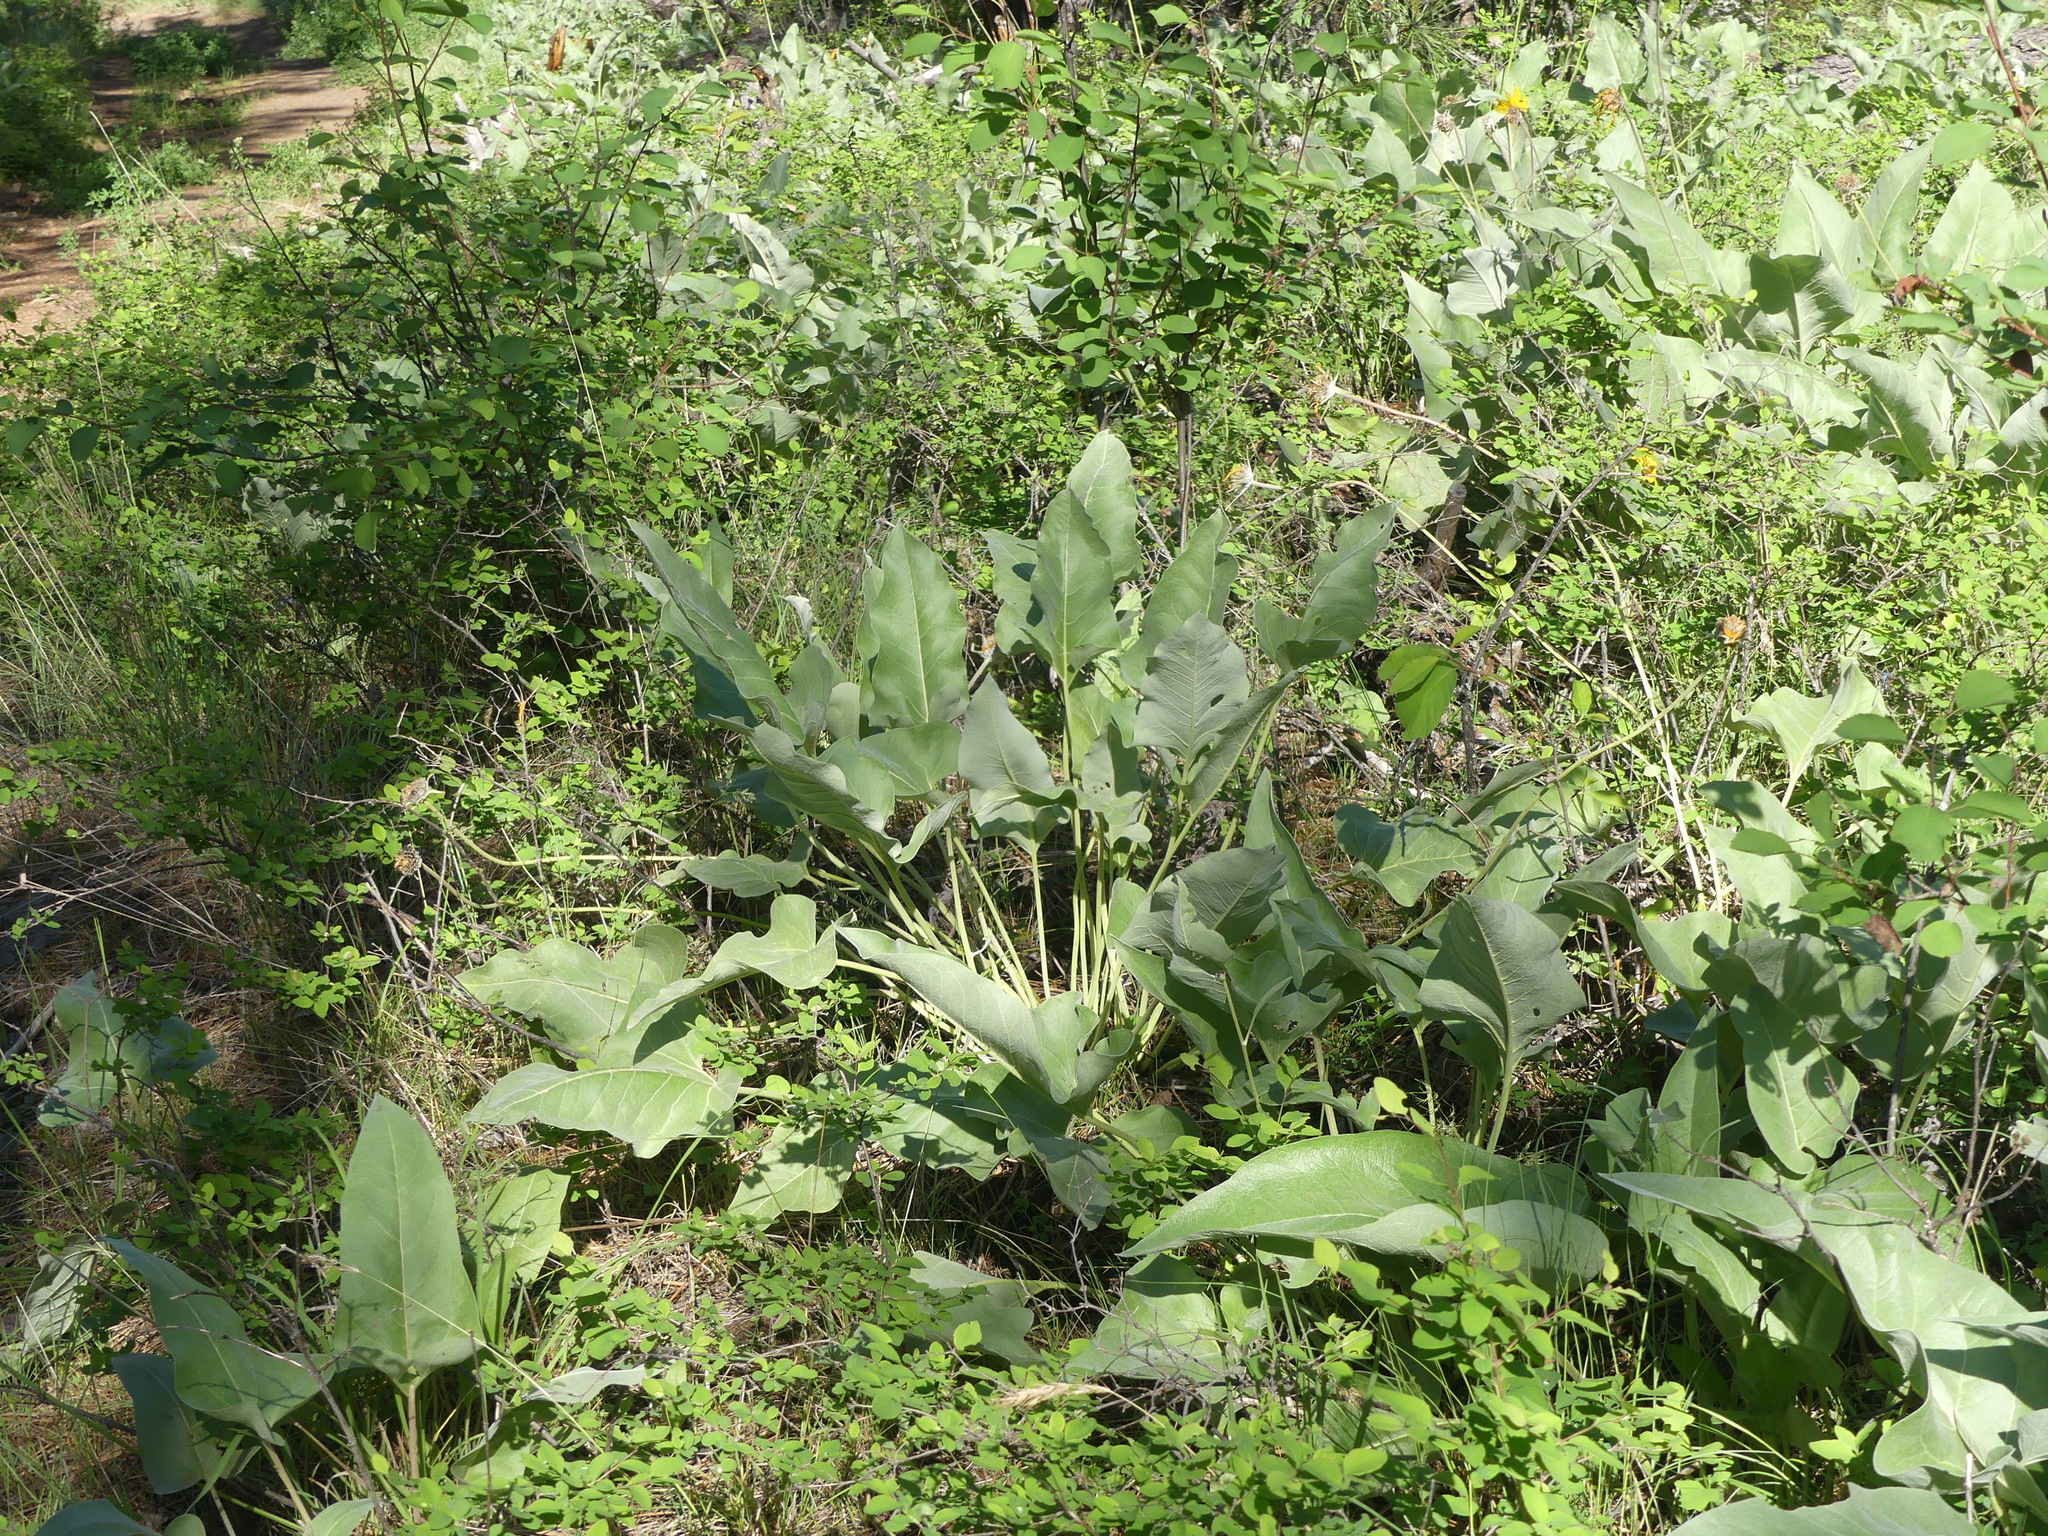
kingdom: Plantae
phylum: Tracheophyta
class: Magnoliopsida
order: Asterales
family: Asteraceae
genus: Wyethia
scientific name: Wyethia sagittata
